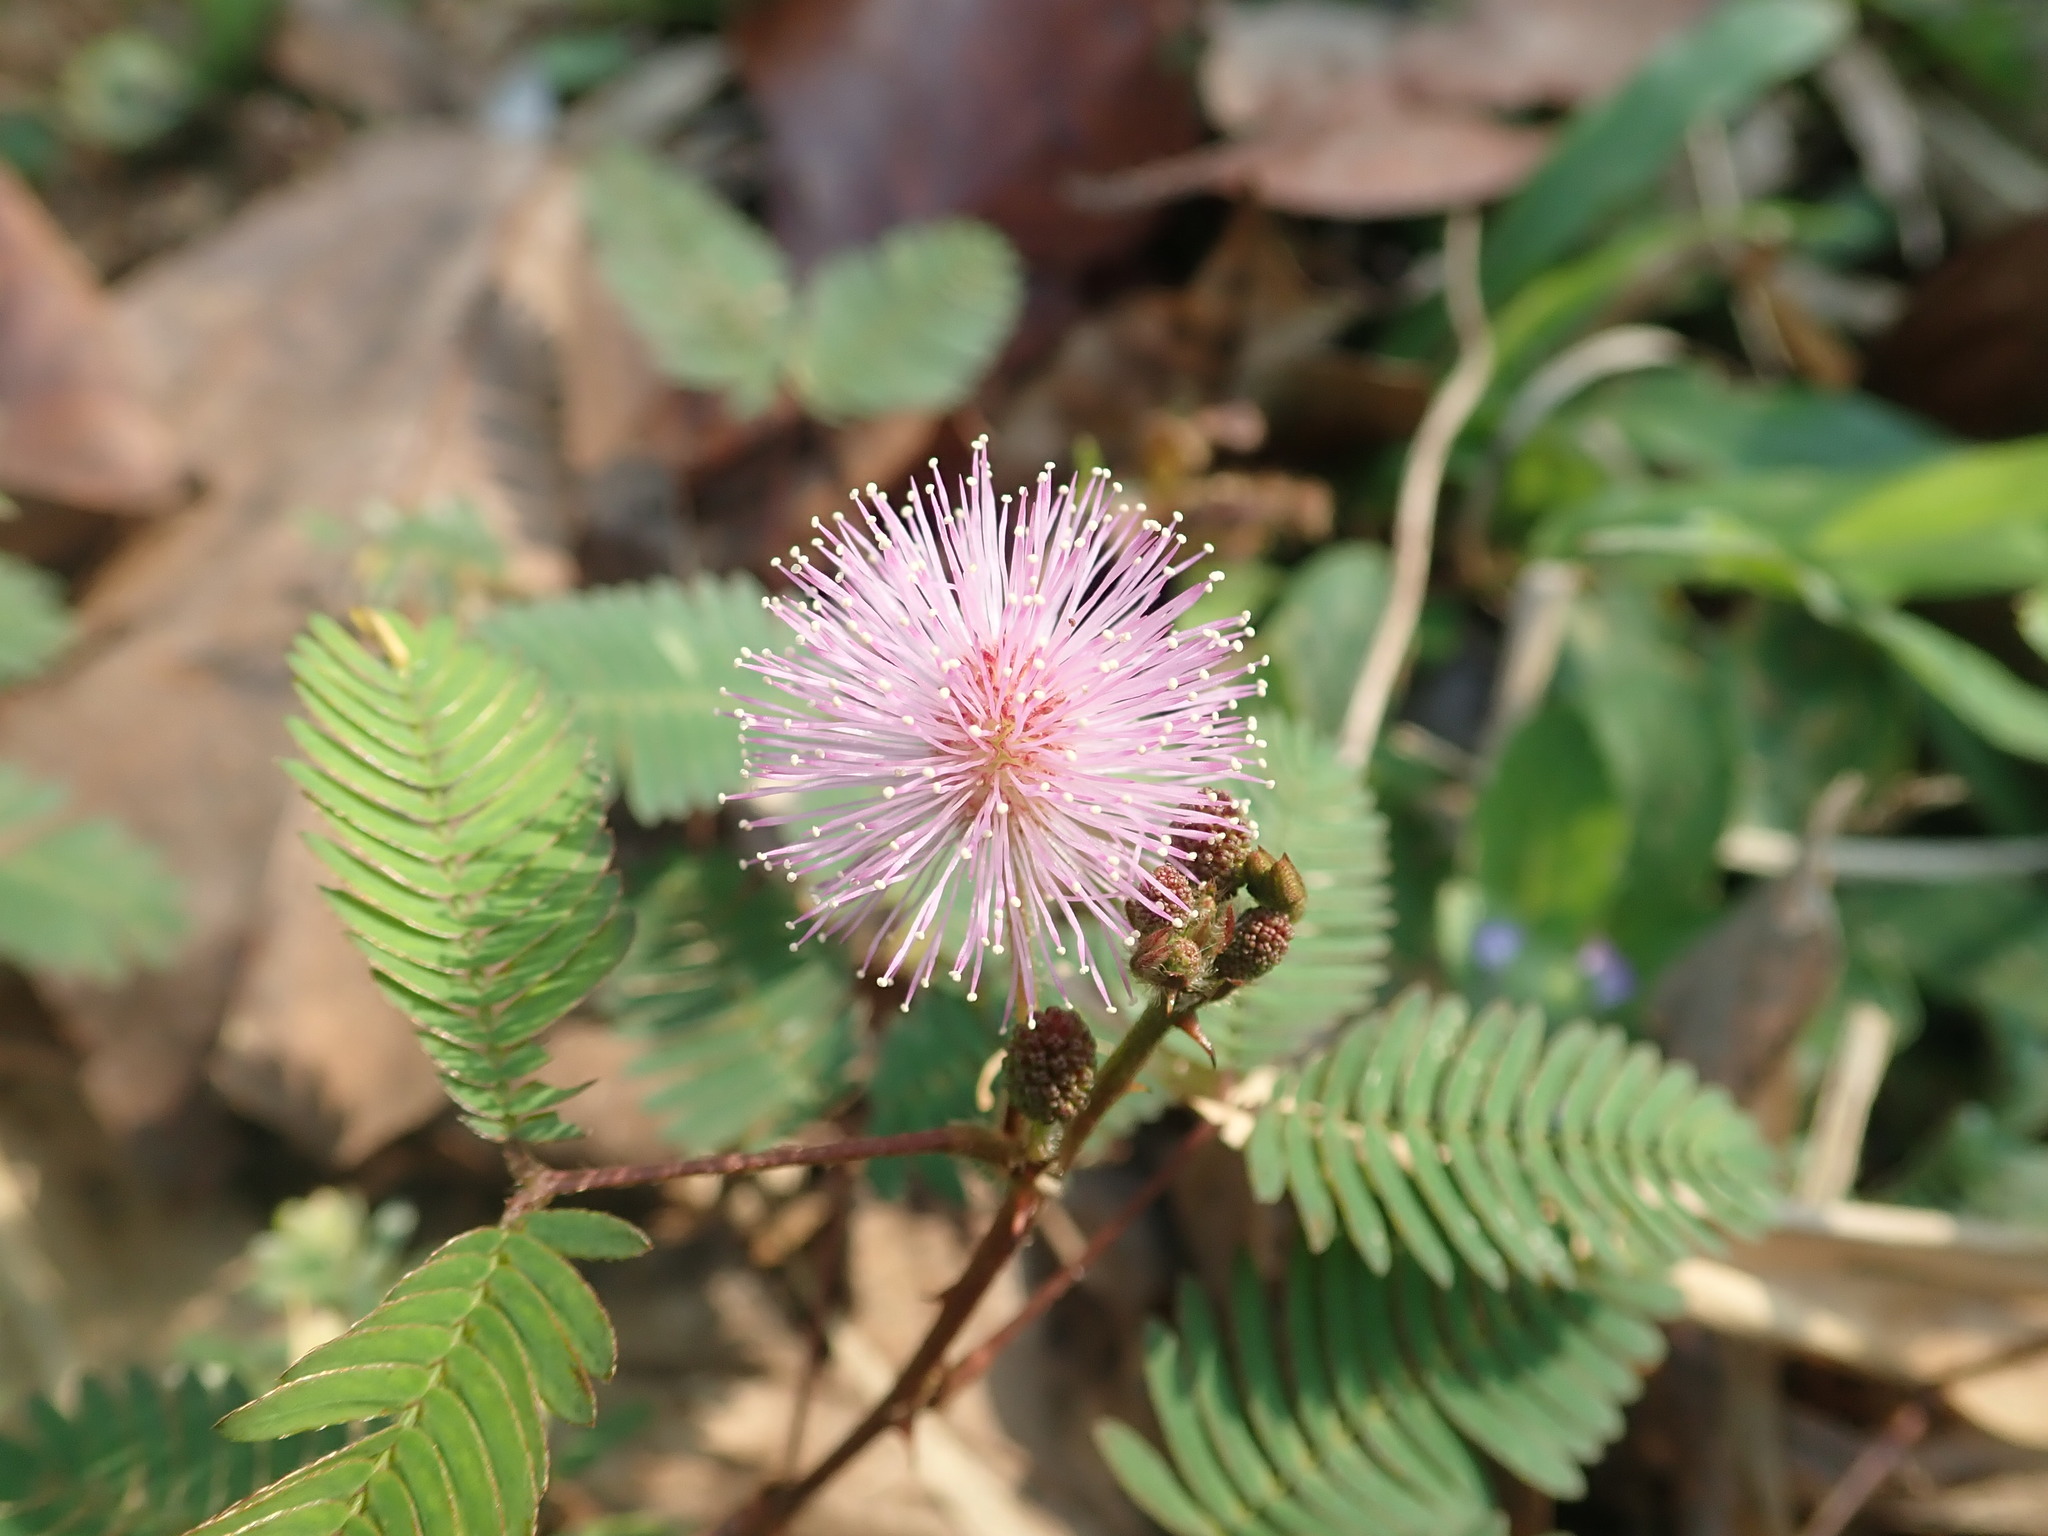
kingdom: Plantae
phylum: Tracheophyta
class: Magnoliopsida
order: Fabales
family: Fabaceae
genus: Mimosa
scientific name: Mimosa pudica
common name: Sensitive plant
